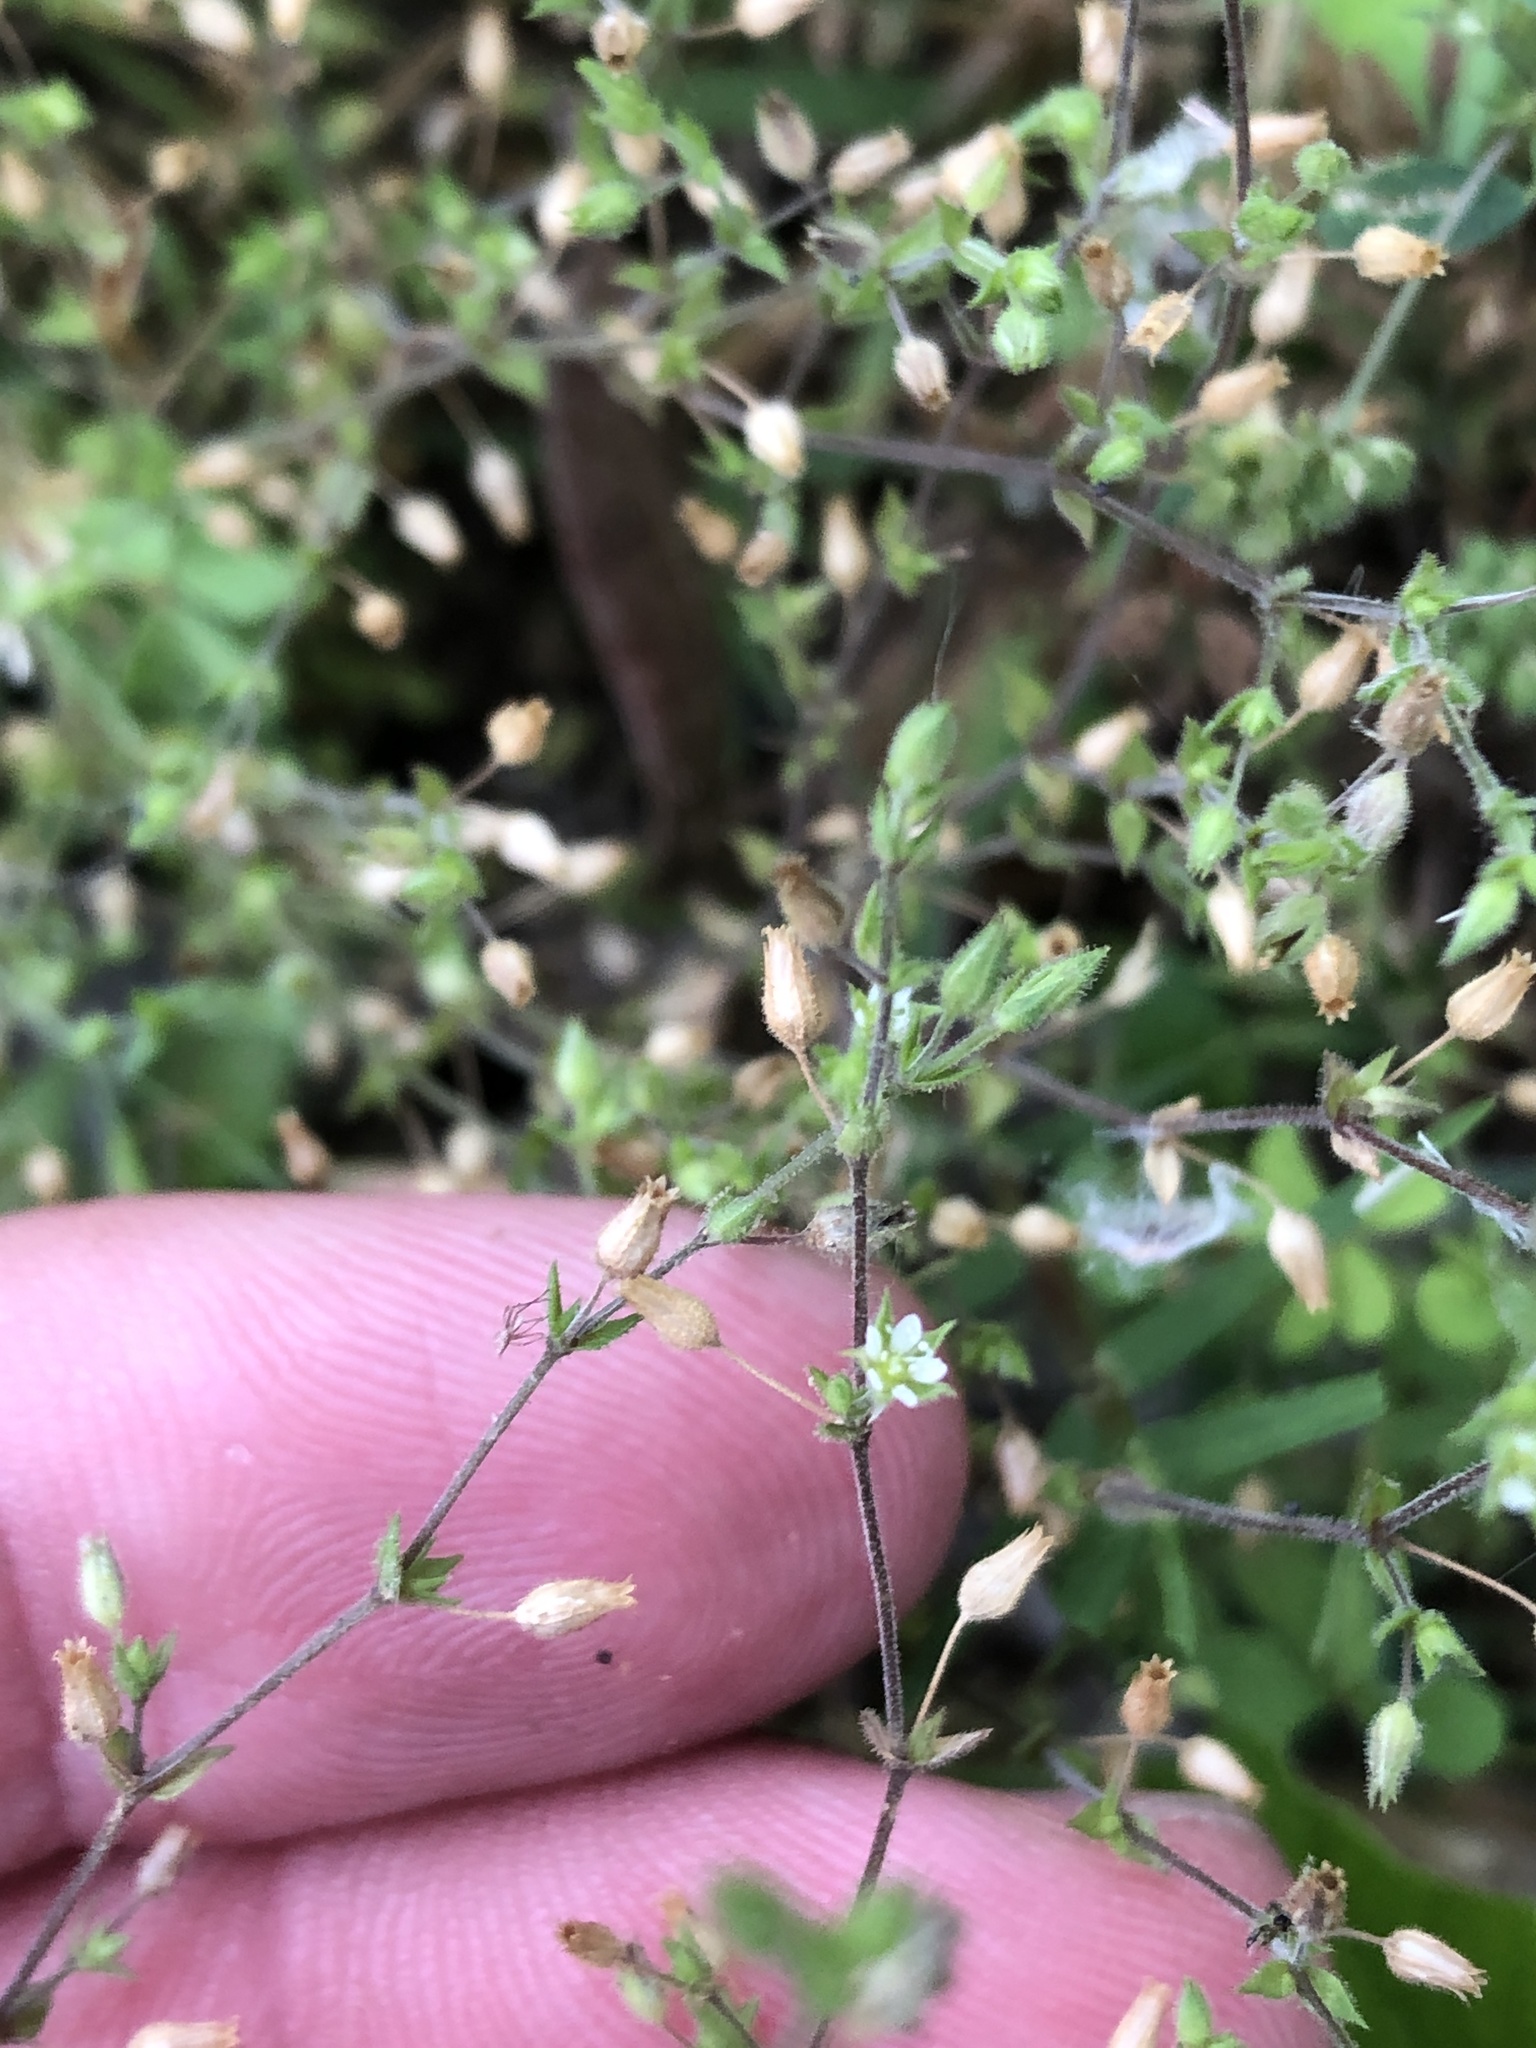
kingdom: Plantae
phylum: Tracheophyta
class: Magnoliopsida
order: Caryophyllales
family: Caryophyllaceae
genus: Arenaria
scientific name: Arenaria serpyllifolia
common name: Thyme-leaved sandwort
